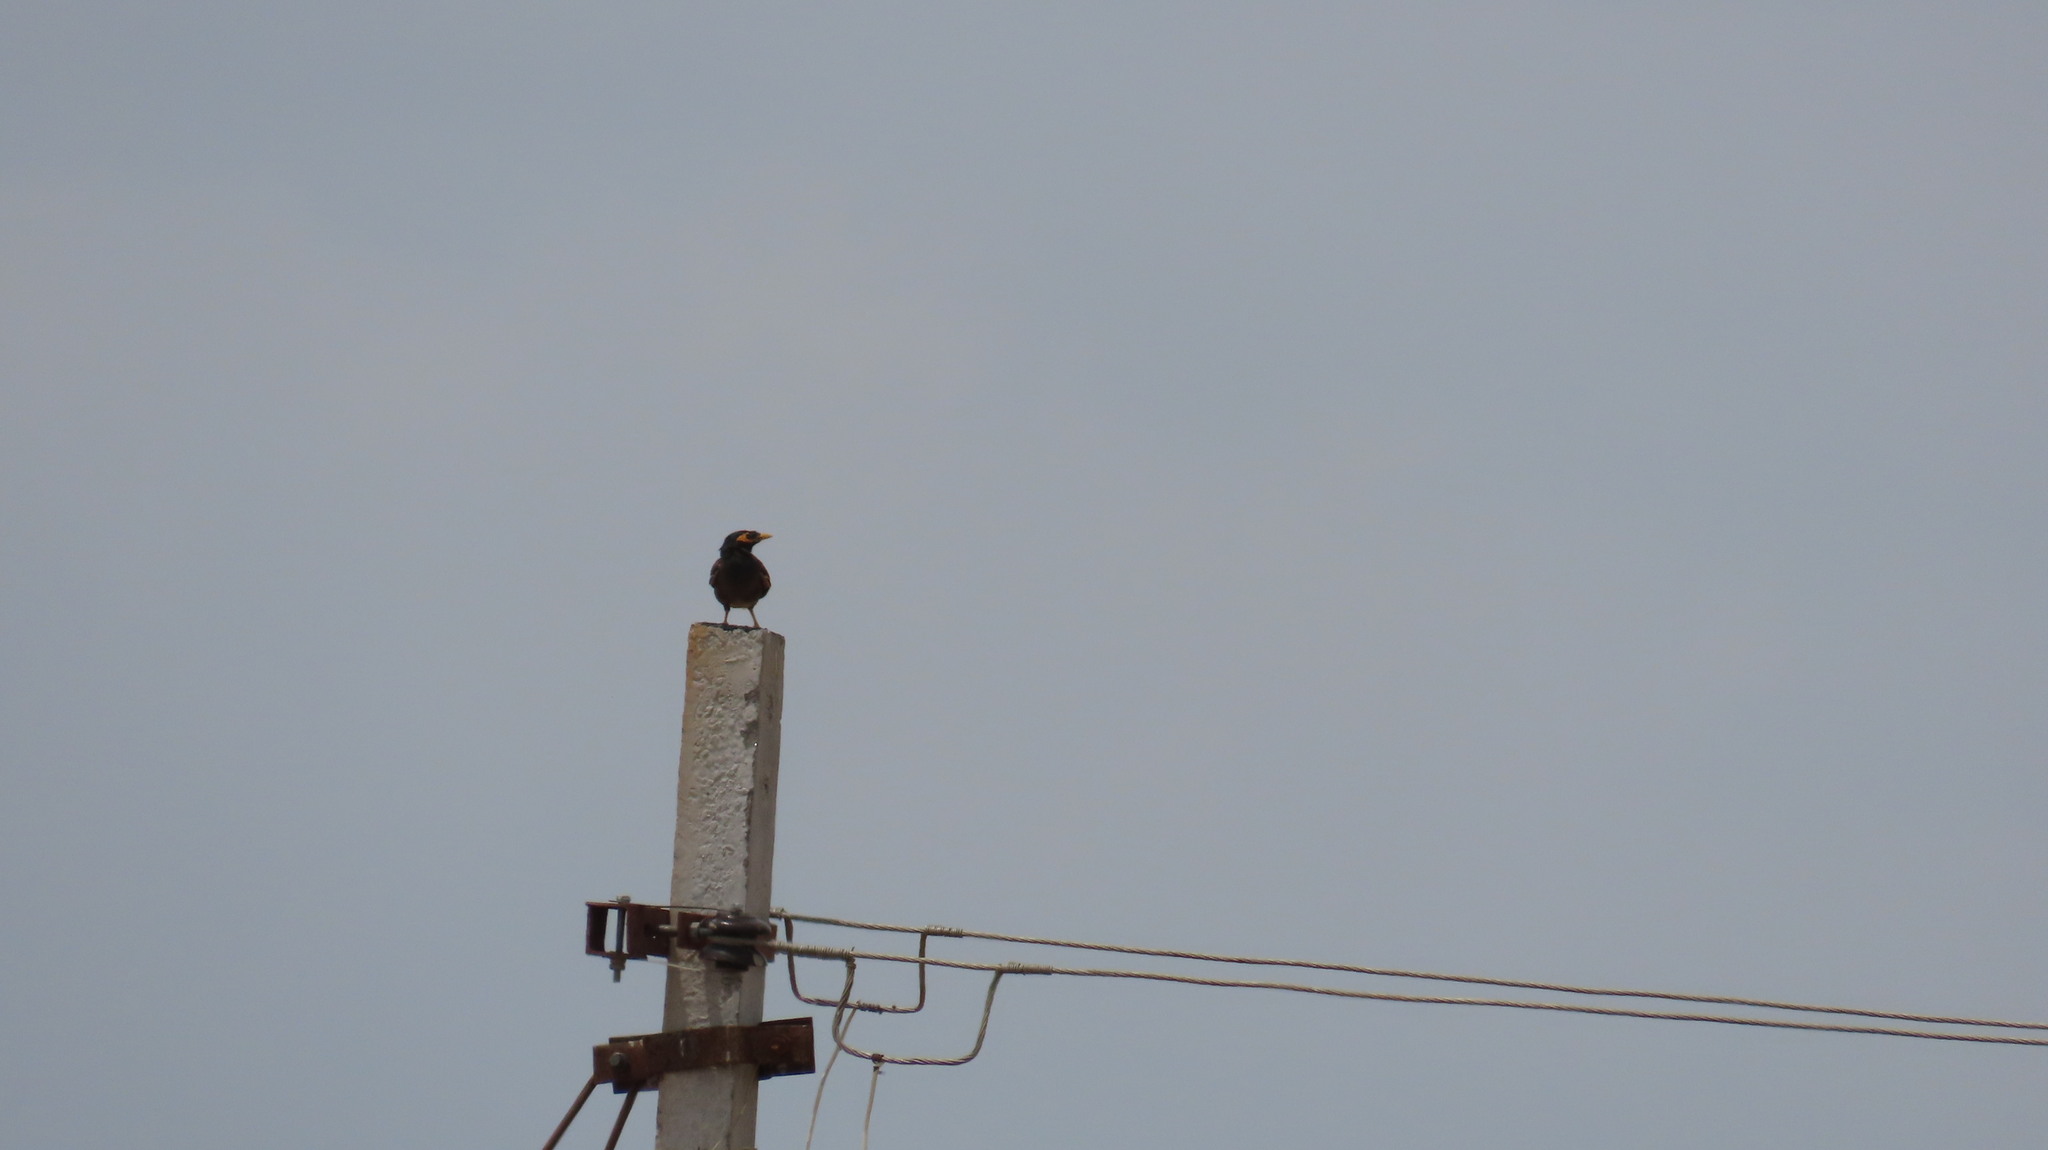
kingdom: Animalia
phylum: Chordata
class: Aves
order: Passeriformes
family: Sturnidae
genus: Acridotheres
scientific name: Acridotheres tristis
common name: Common myna
